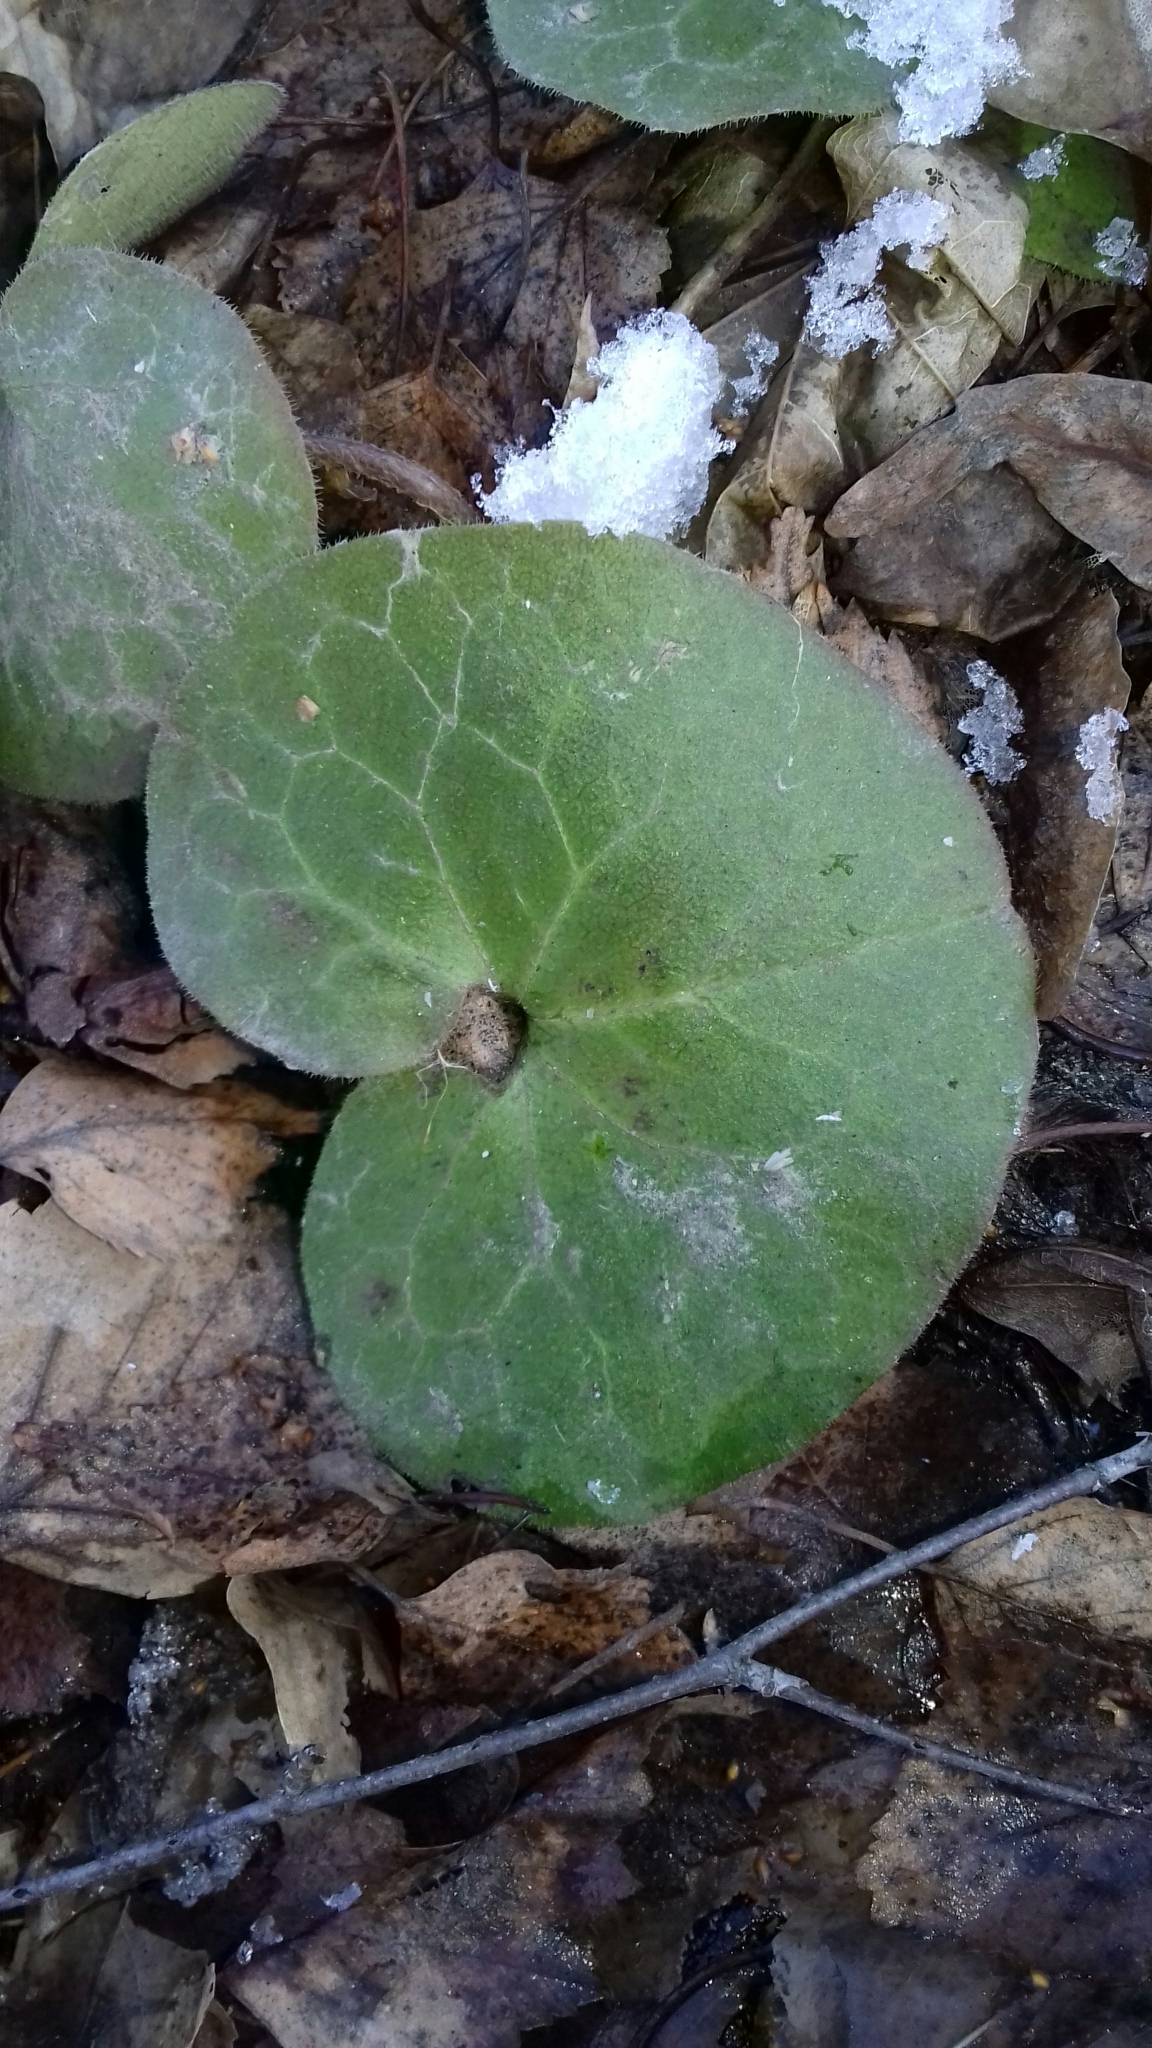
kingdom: Plantae
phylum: Tracheophyta
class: Magnoliopsida
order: Piperales
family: Aristolochiaceae
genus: Asarum
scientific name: Asarum europaeum
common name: Asarabacca
